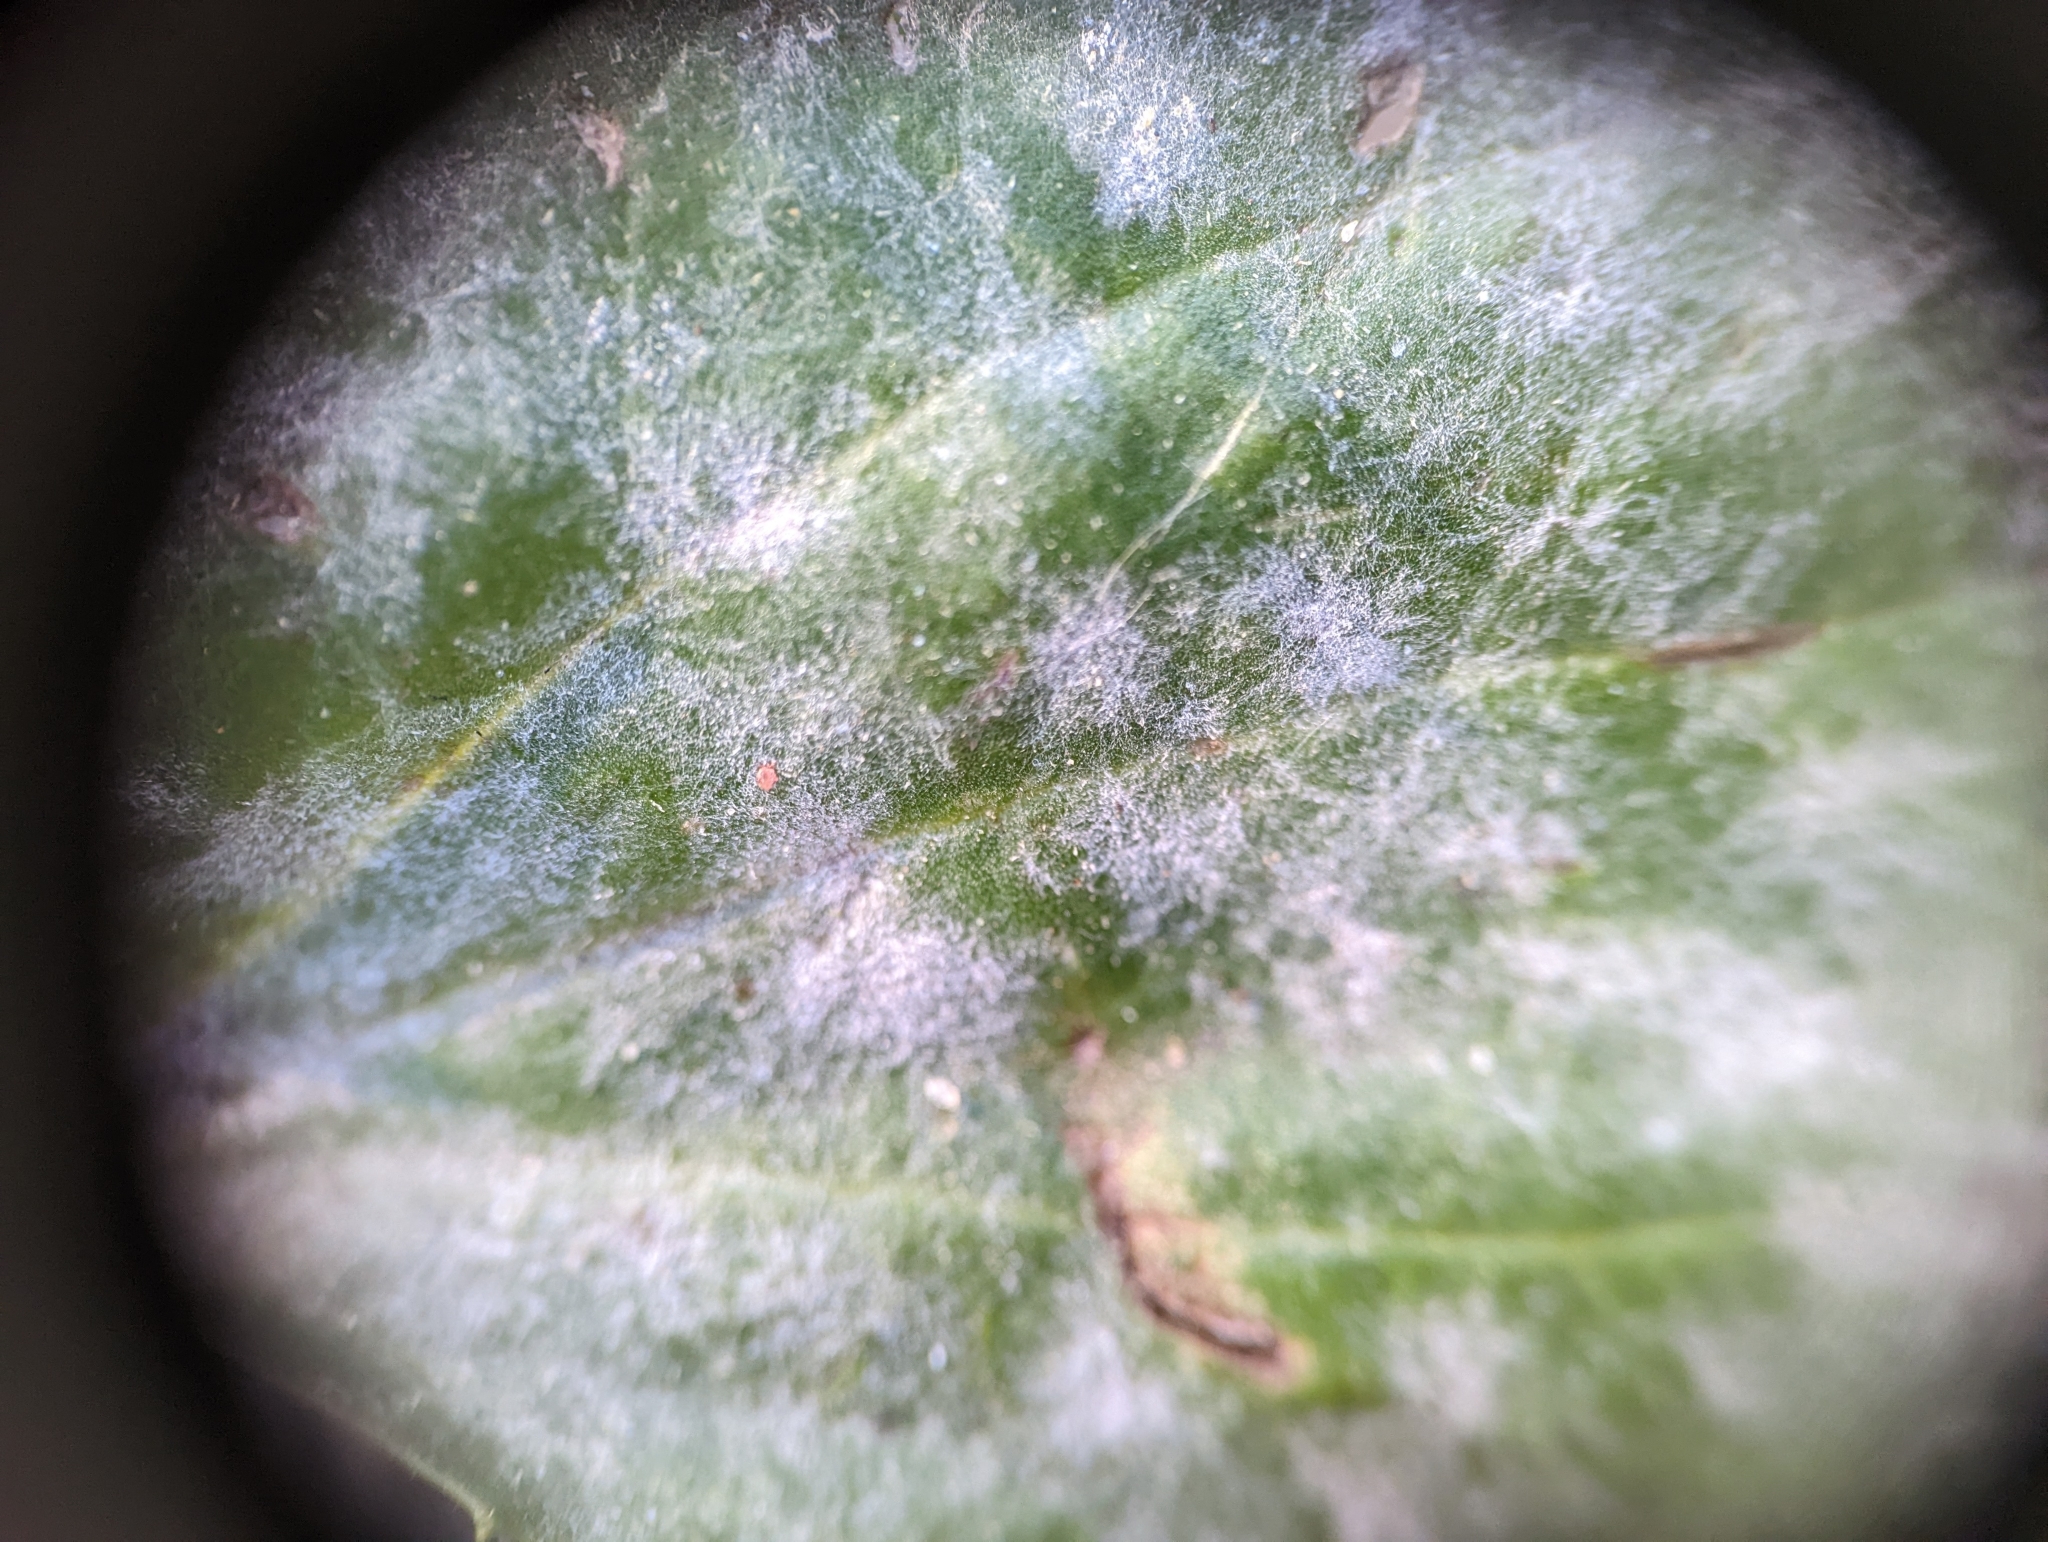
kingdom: Fungi
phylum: Ascomycota
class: Leotiomycetes
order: Helotiales
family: Erysiphaceae
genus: Golovinomyces
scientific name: Golovinomyces sordidus
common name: Plantain mildew
